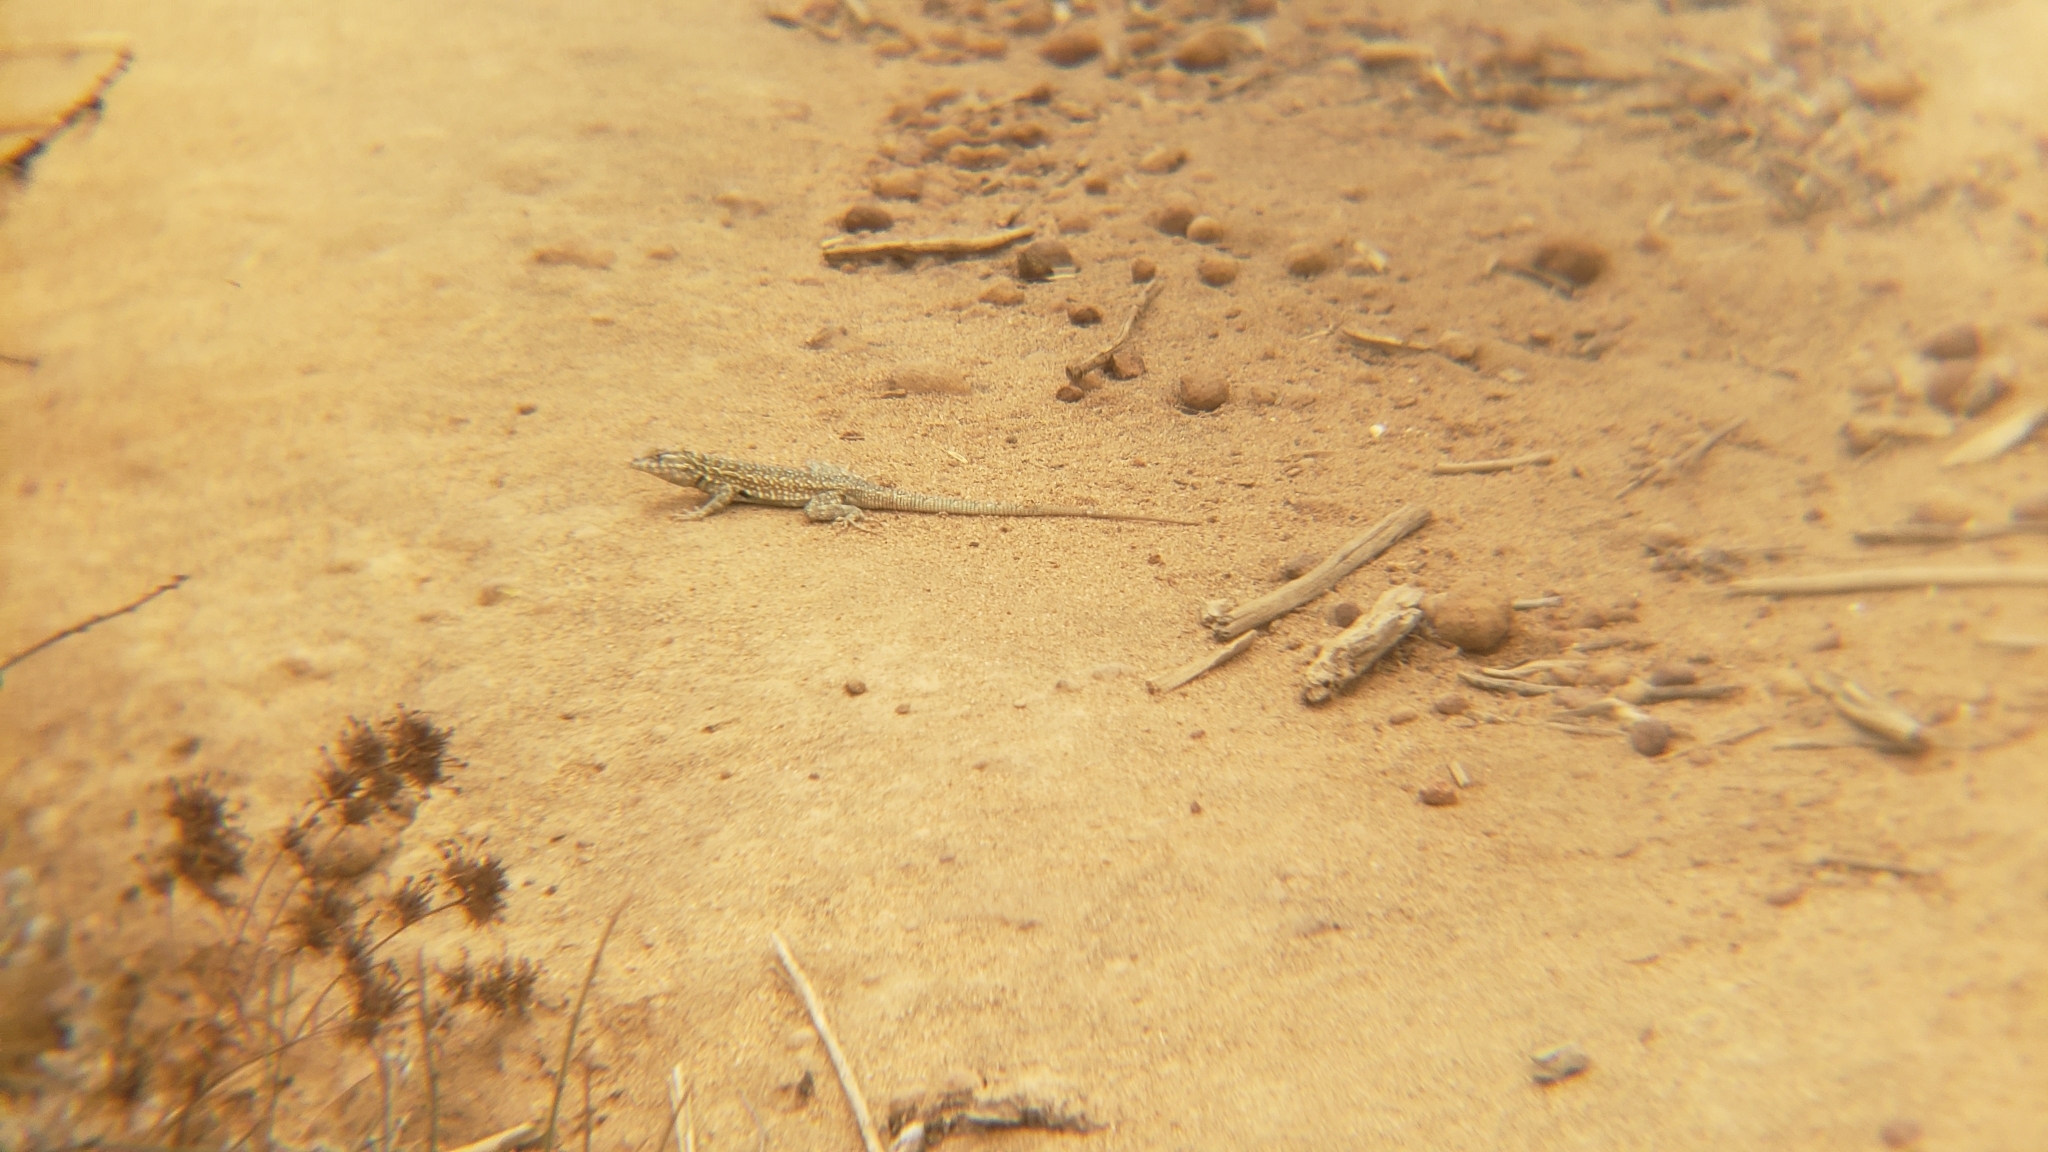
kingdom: Animalia
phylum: Chordata
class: Squamata
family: Phrynosomatidae
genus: Uta
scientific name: Uta stansburiana
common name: Side-blotched lizard
